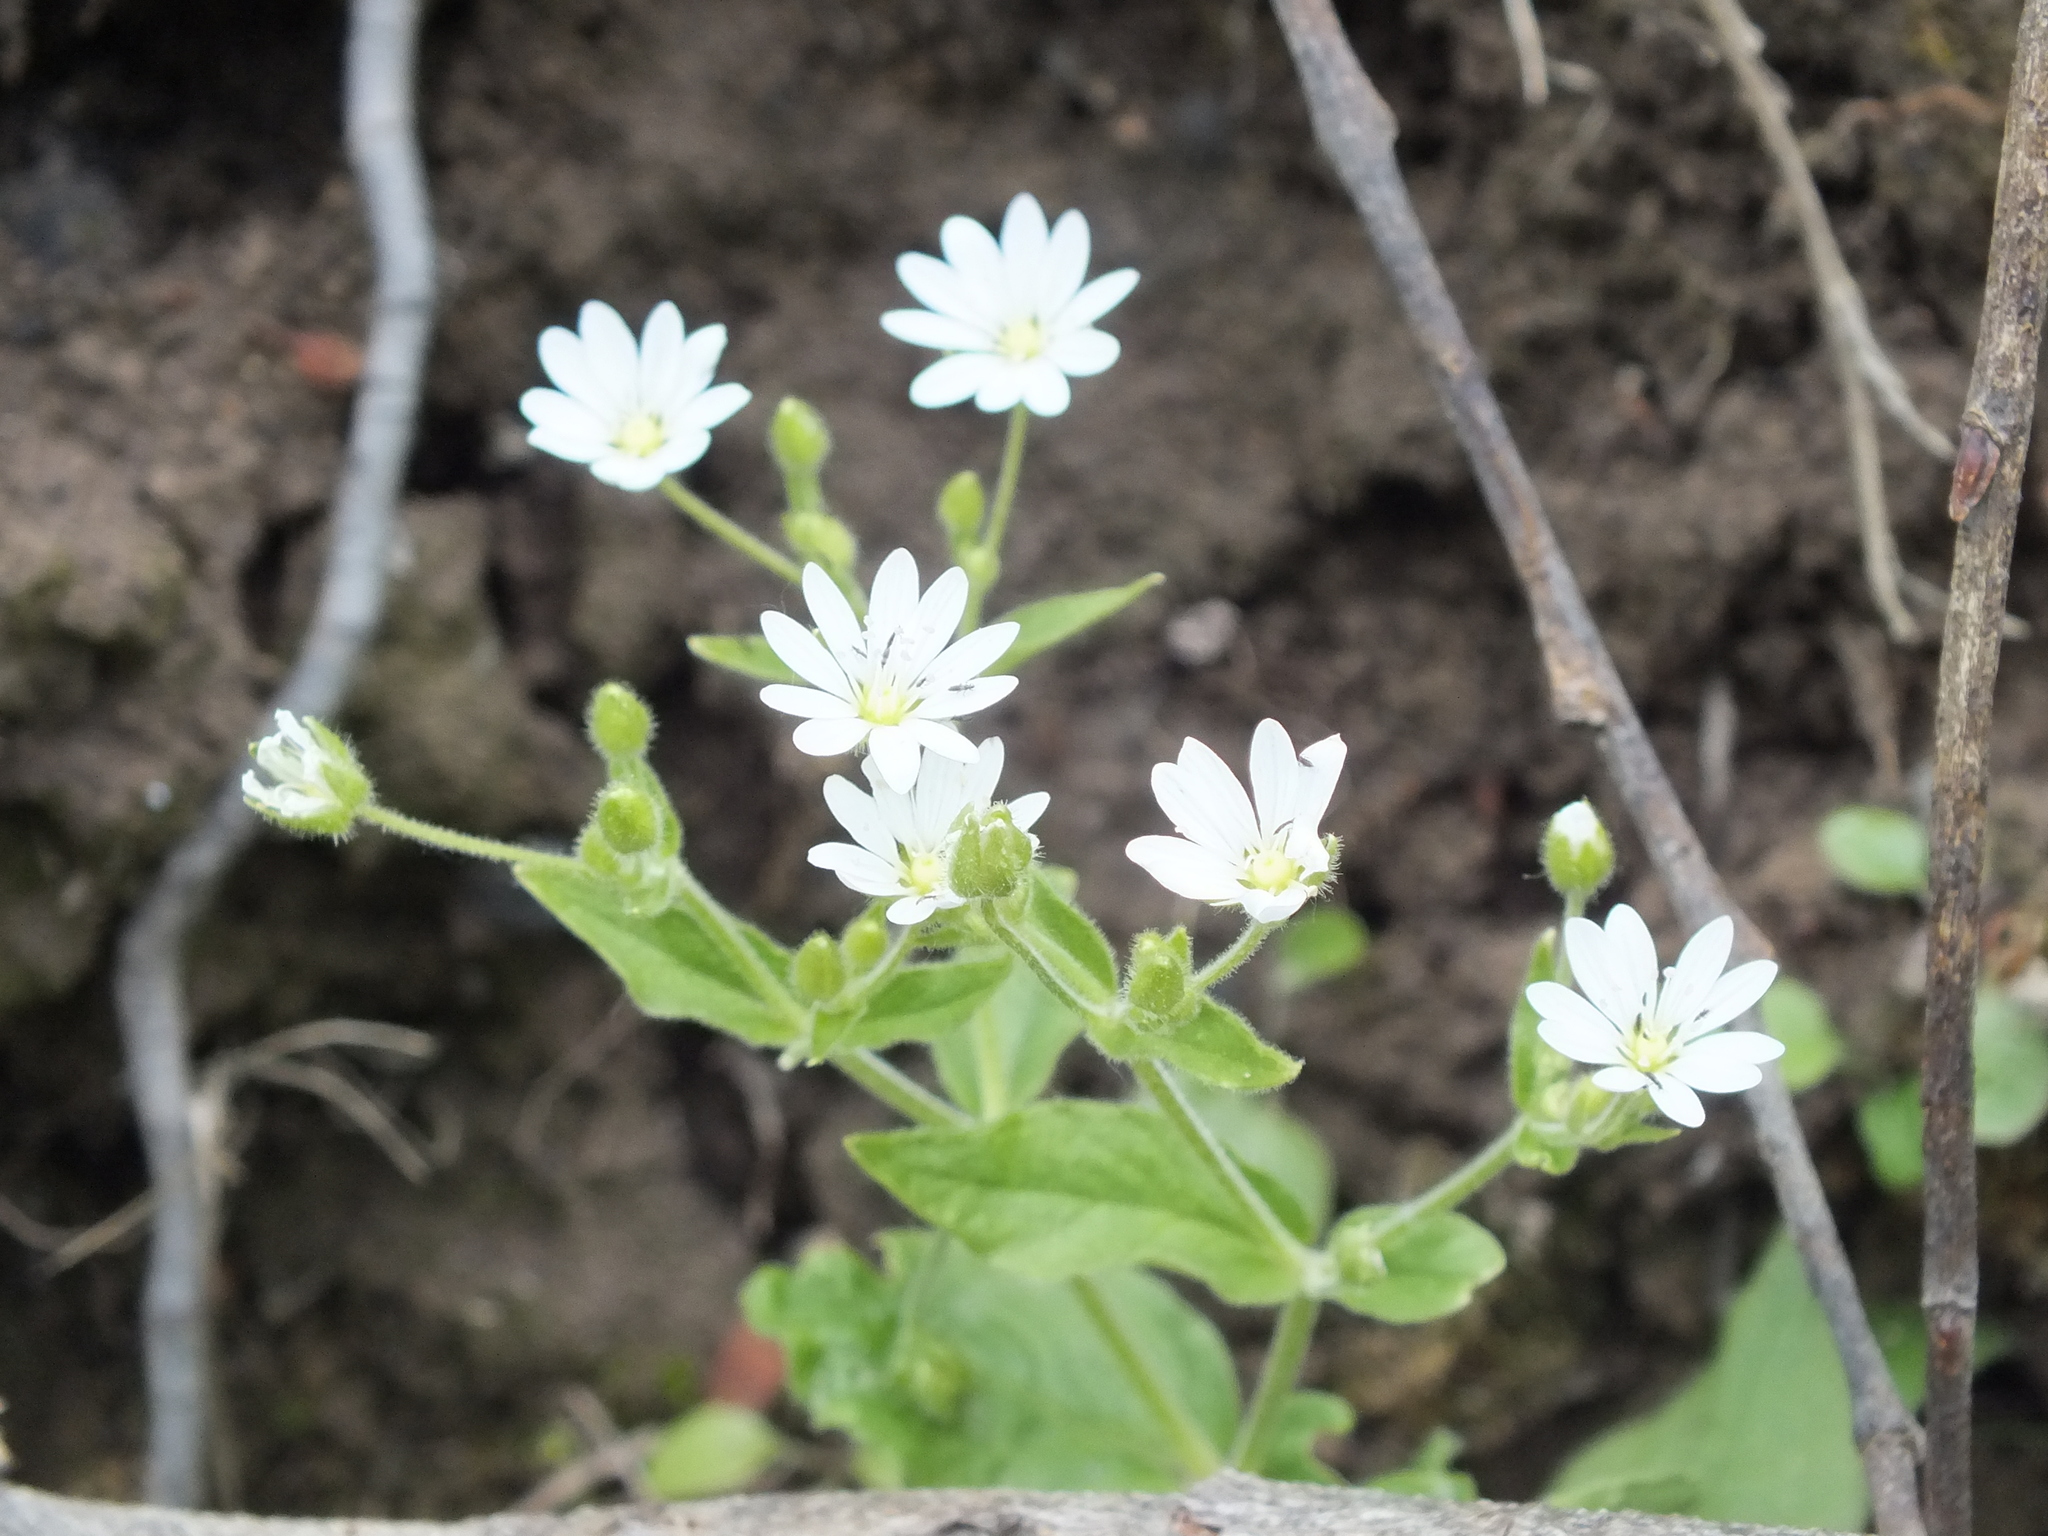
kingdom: Plantae
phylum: Tracheophyta
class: Magnoliopsida
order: Caryophyllales
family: Caryophyllaceae
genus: Stellaria
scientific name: Stellaria bungeana
